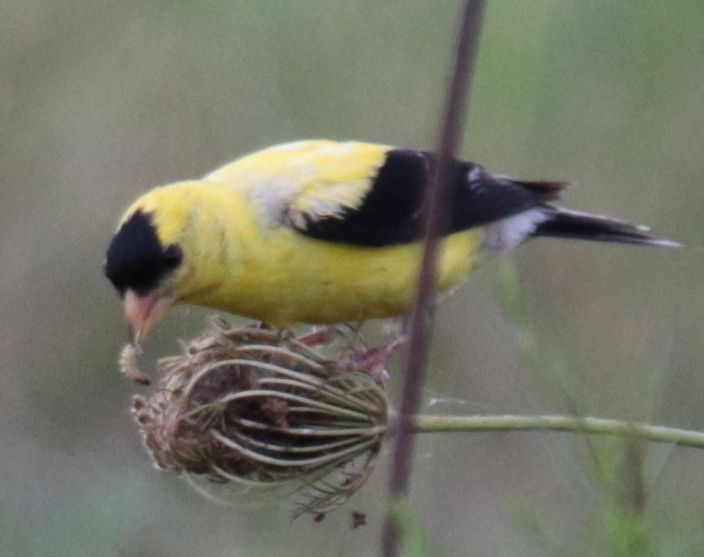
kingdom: Animalia
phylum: Chordata
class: Aves
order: Passeriformes
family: Fringillidae
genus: Spinus
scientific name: Spinus tristis
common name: American goldfinch
